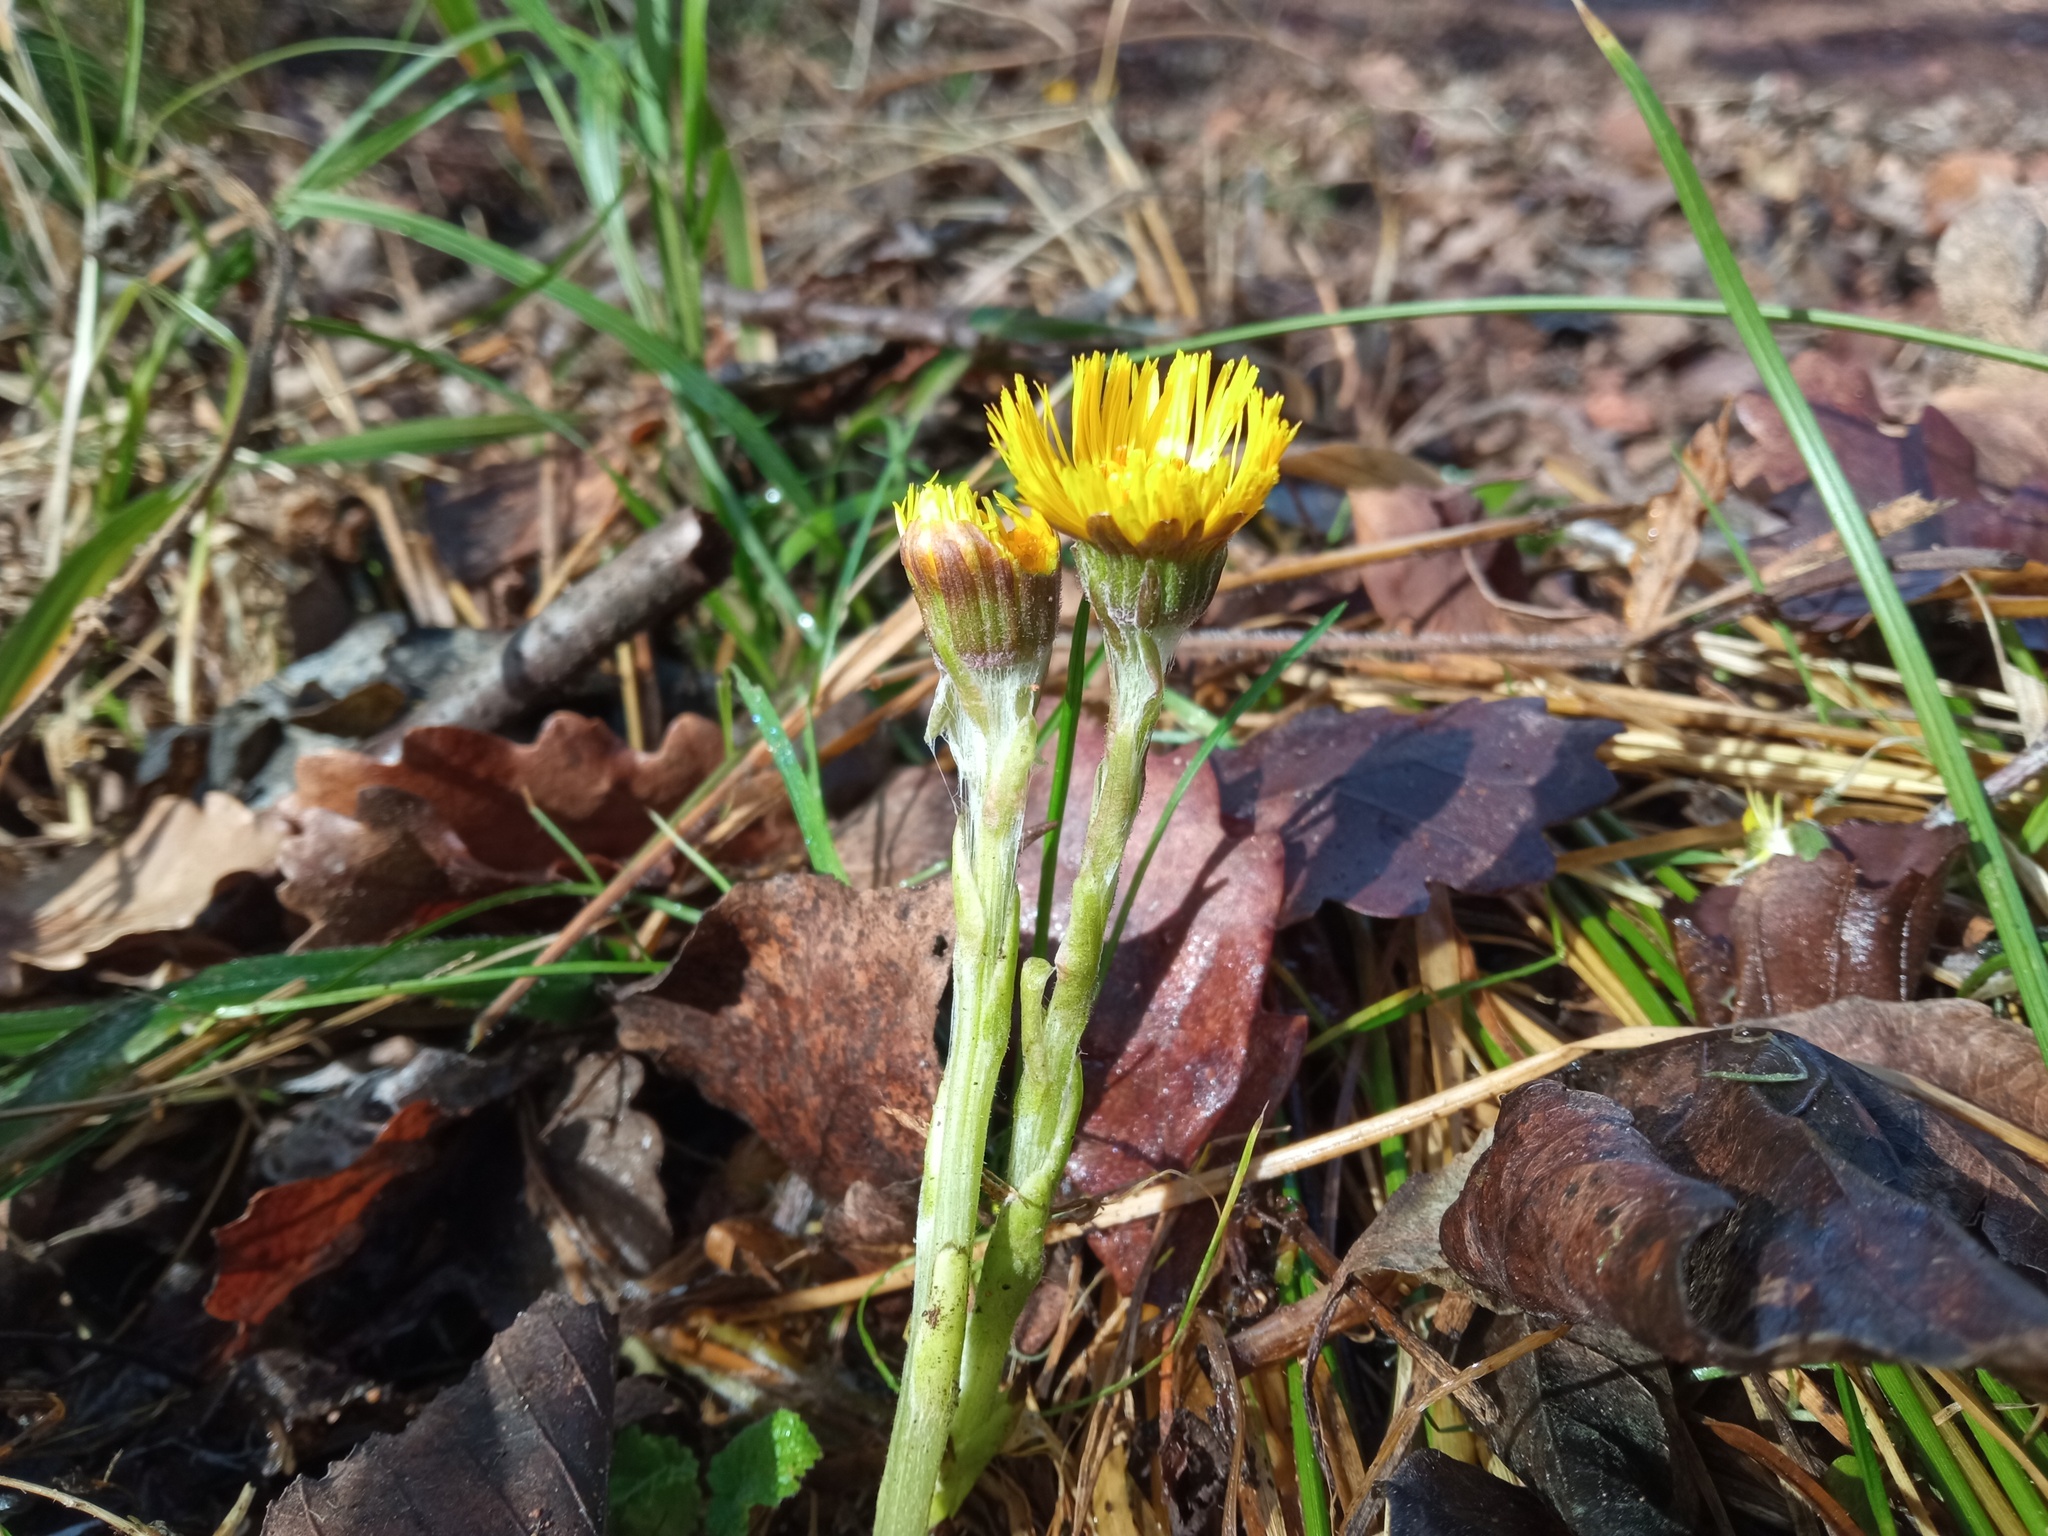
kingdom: Plantae
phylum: Tracheophyta
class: Magnoliopsida
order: Asterales
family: Asteraceae
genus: Tussilago
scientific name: Tussilago farfara
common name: Coltsfoot
